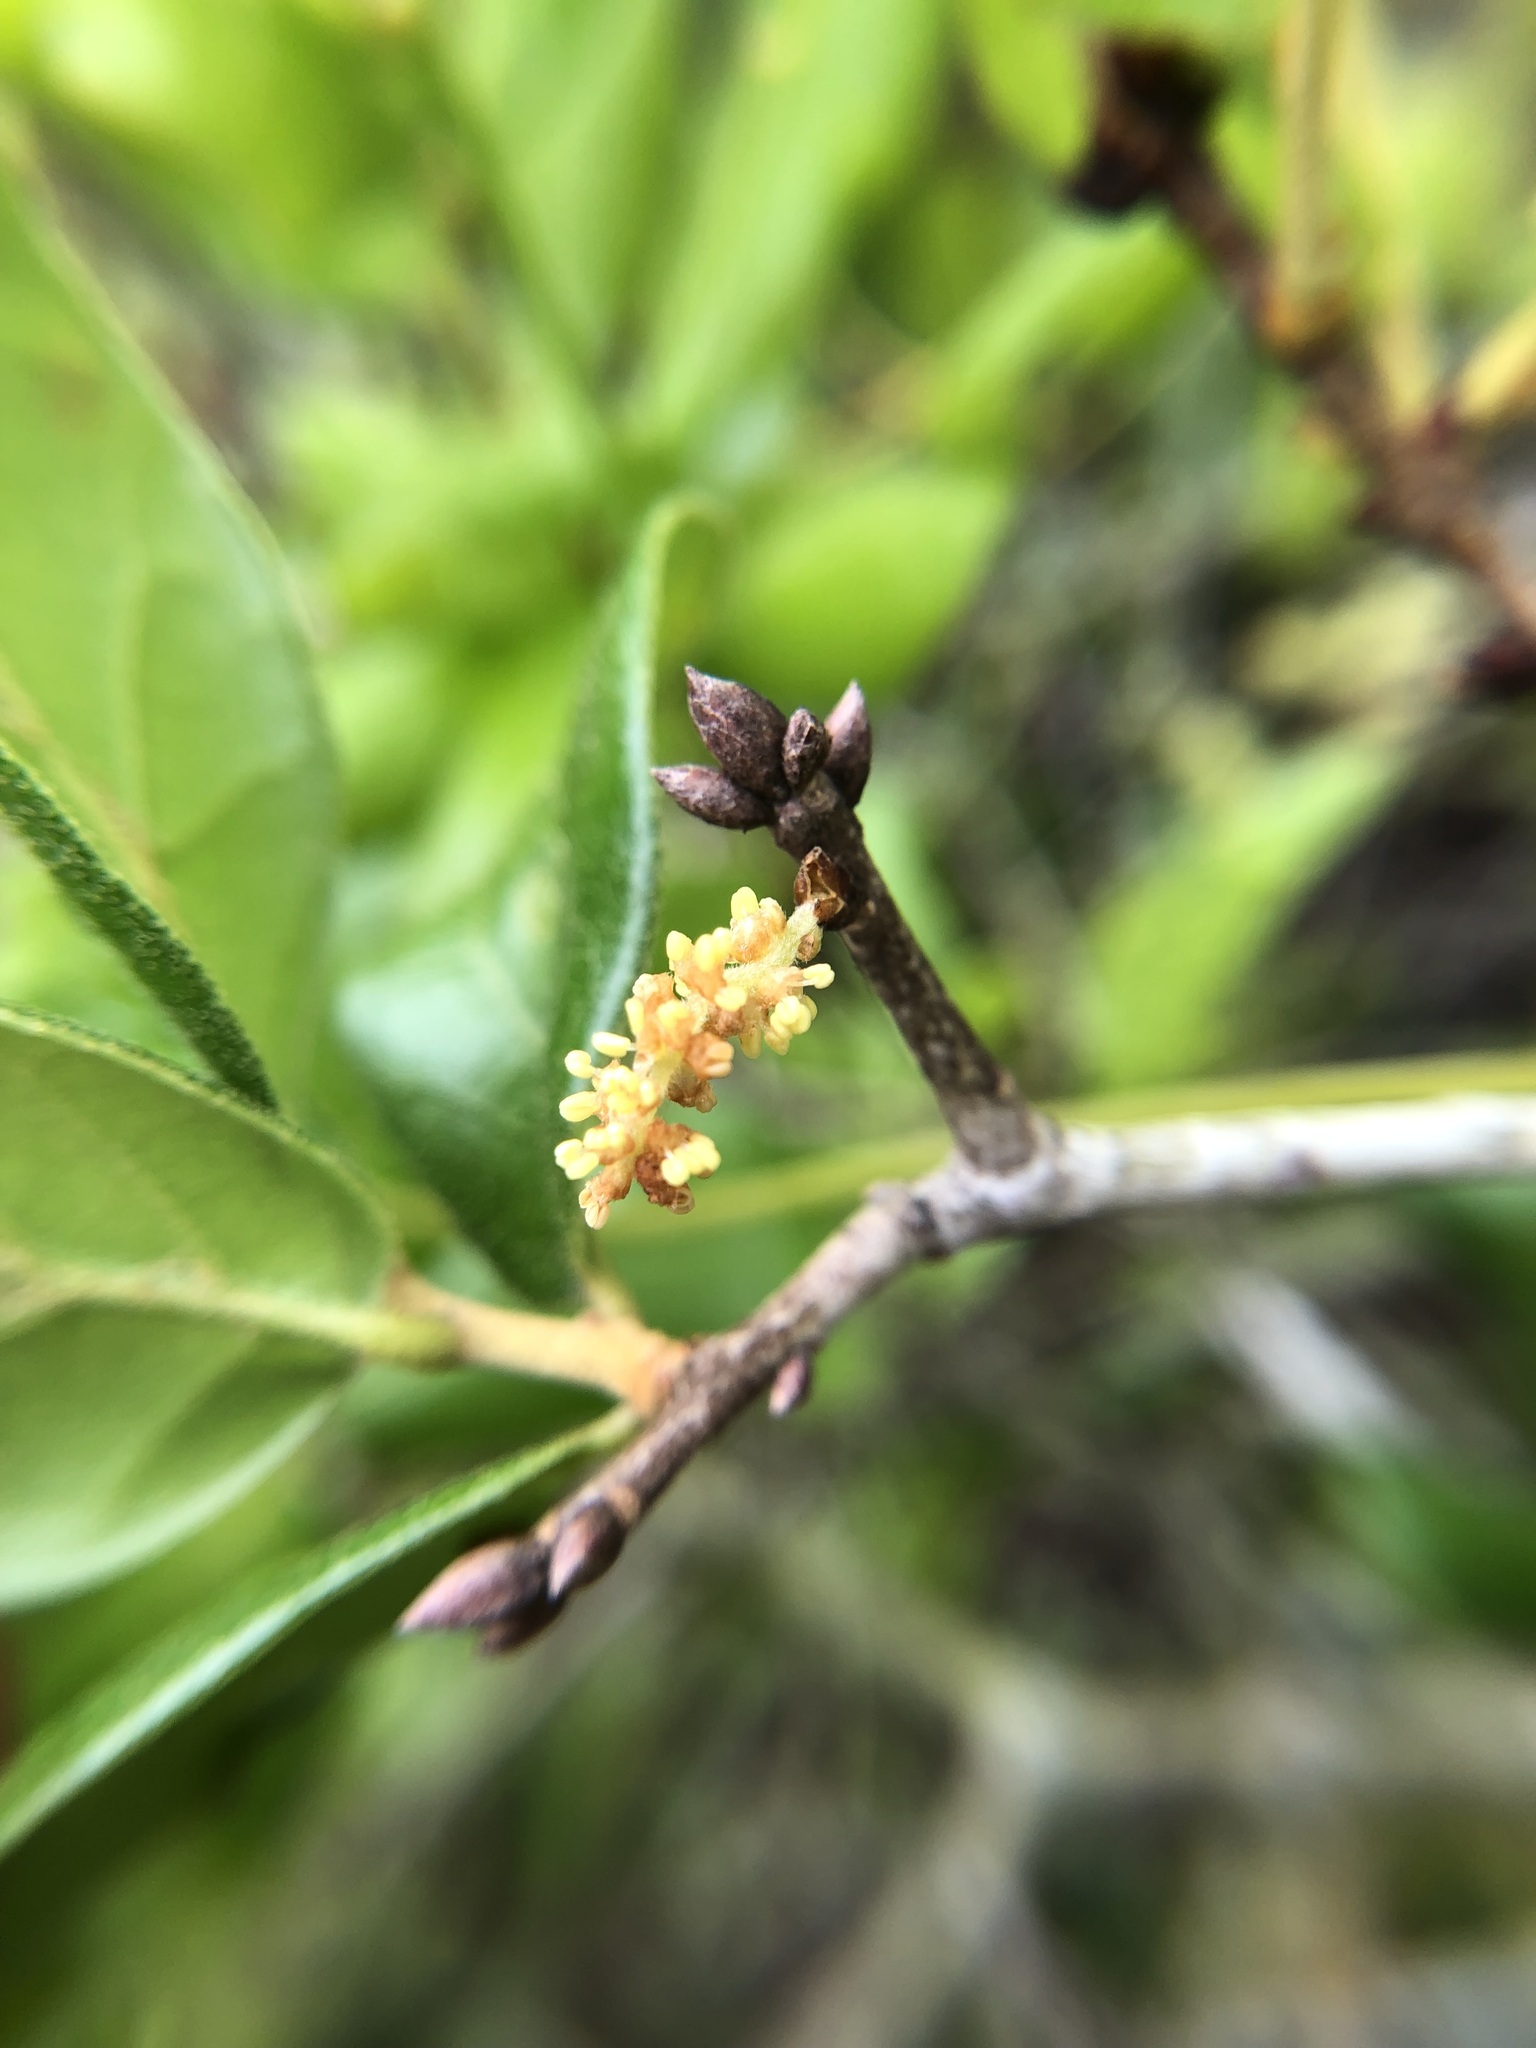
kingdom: Plantae
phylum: Tracheophyta
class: Magnoliopsida
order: Fagales
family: Fagaceae
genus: Quercus
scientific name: Quercus myrtifolia
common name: Myrtle oak
